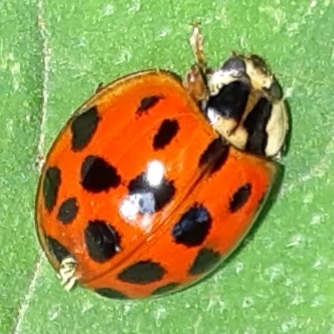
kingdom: Fungi
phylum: Ascomycota
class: Laboulbeniomycetes
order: Laboulbeniales
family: Laboulbeniaceae
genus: Hesperomyces
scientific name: Hesperomyces harmoniae
